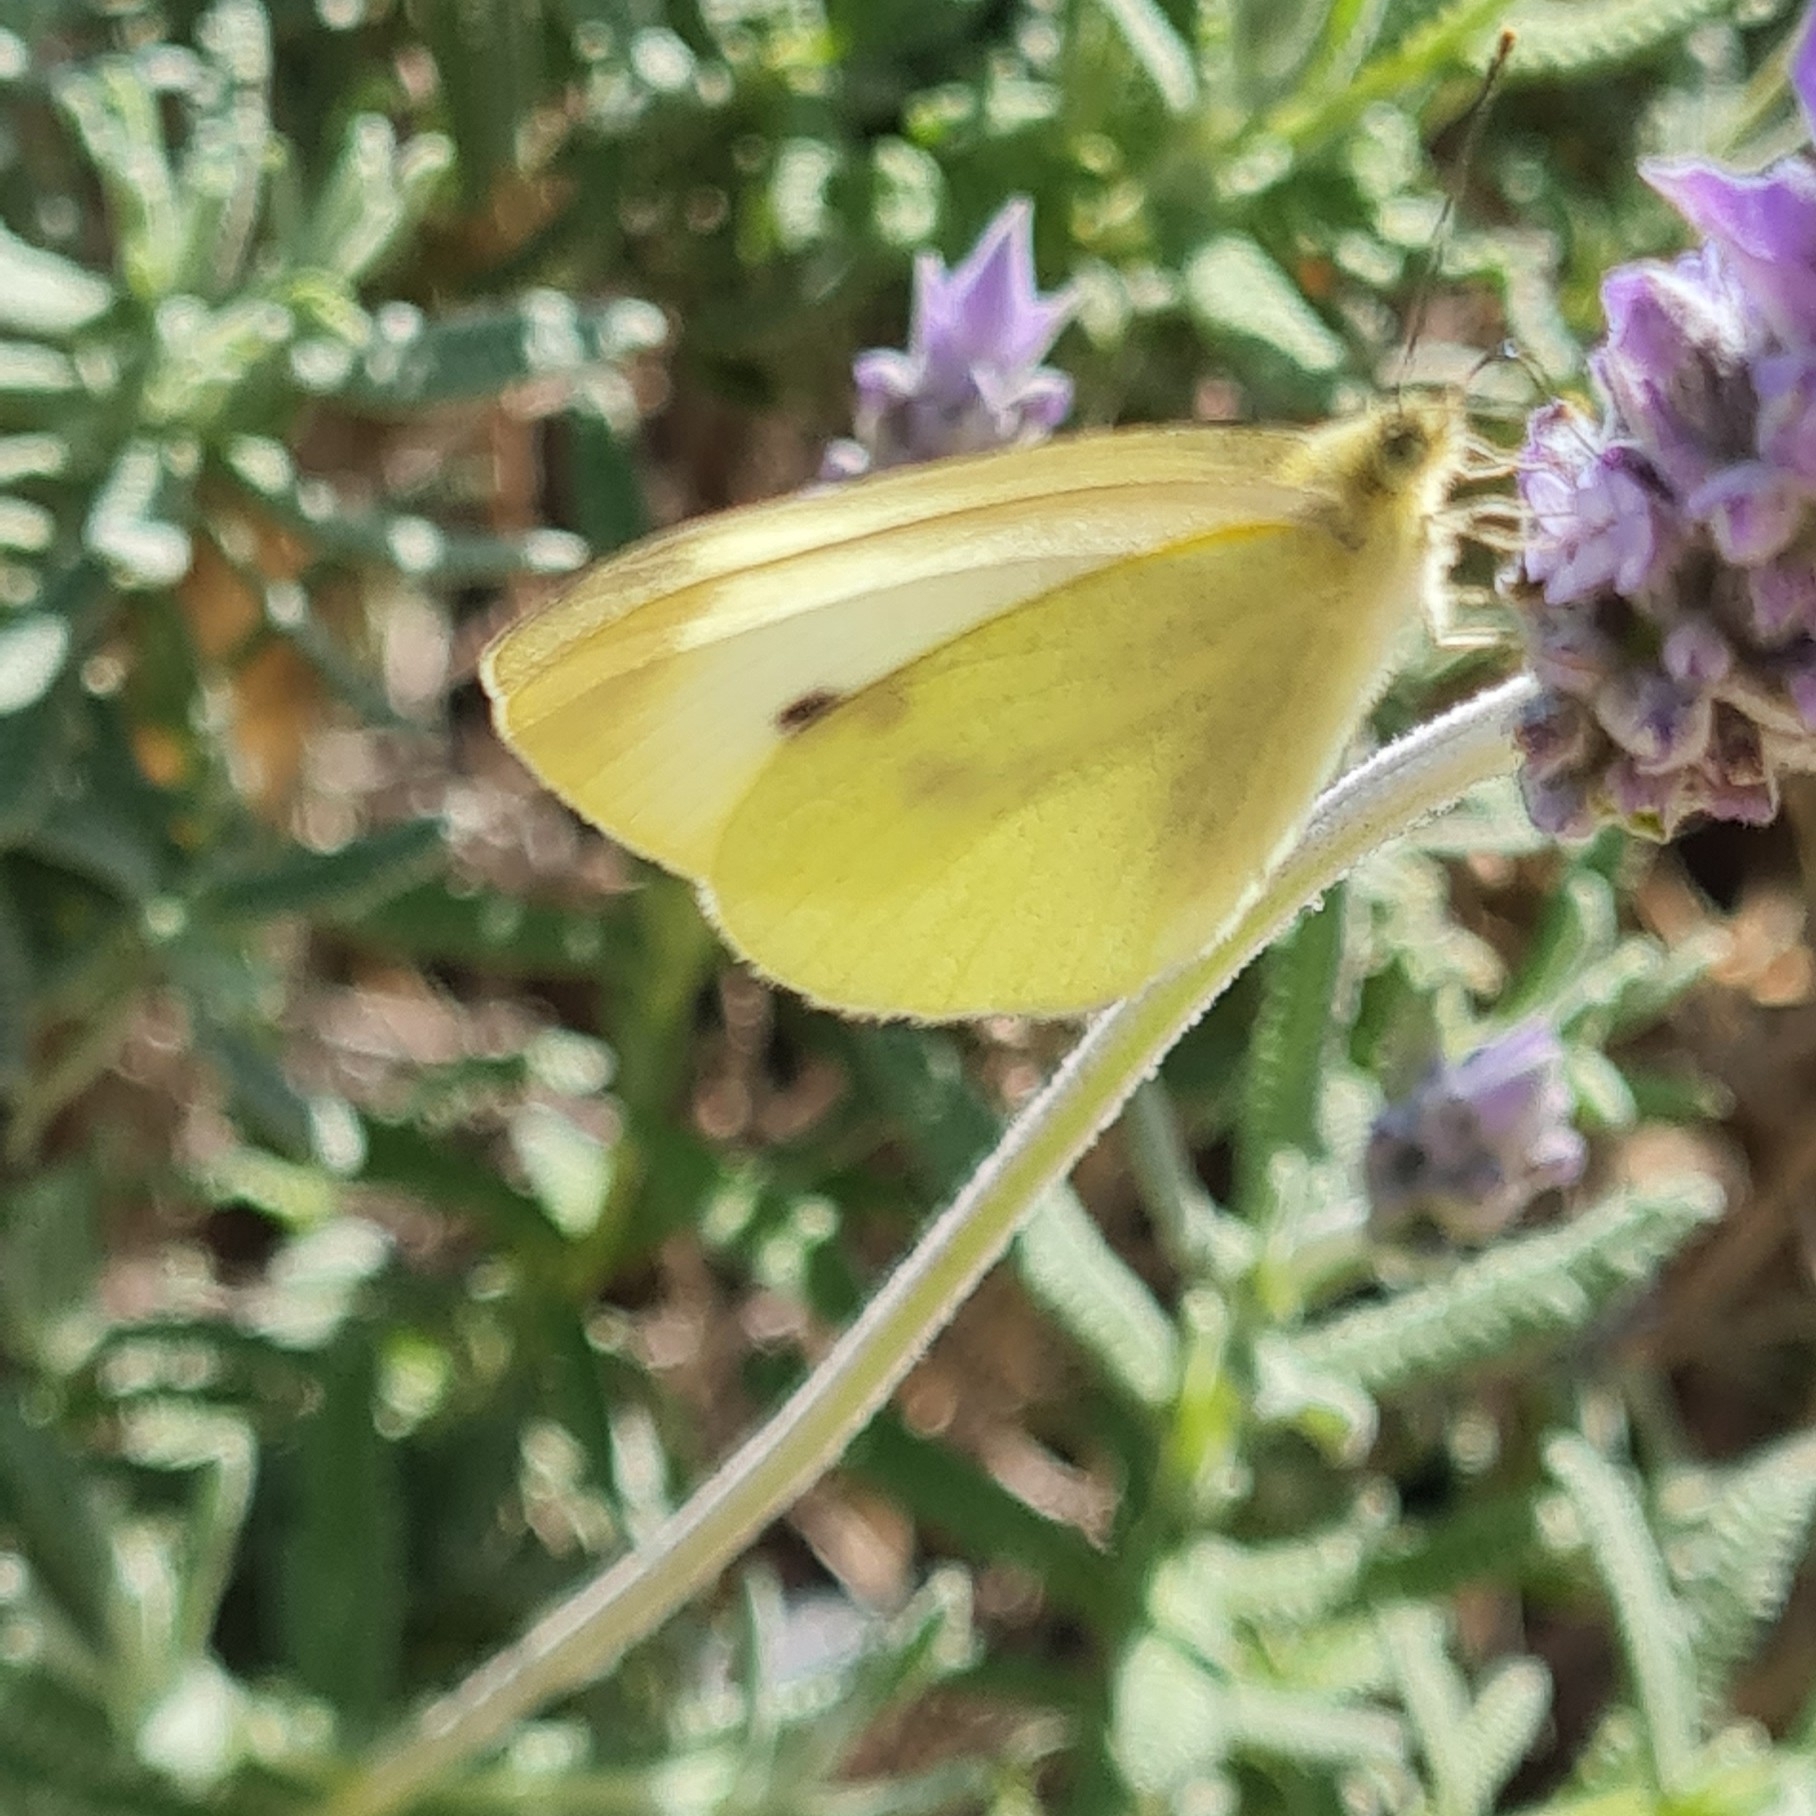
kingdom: Animalia
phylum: Arthropoda
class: Insecta
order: Lepidoptera
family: Pieridae
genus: Pieris
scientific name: Pieris rapae
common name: Small white
